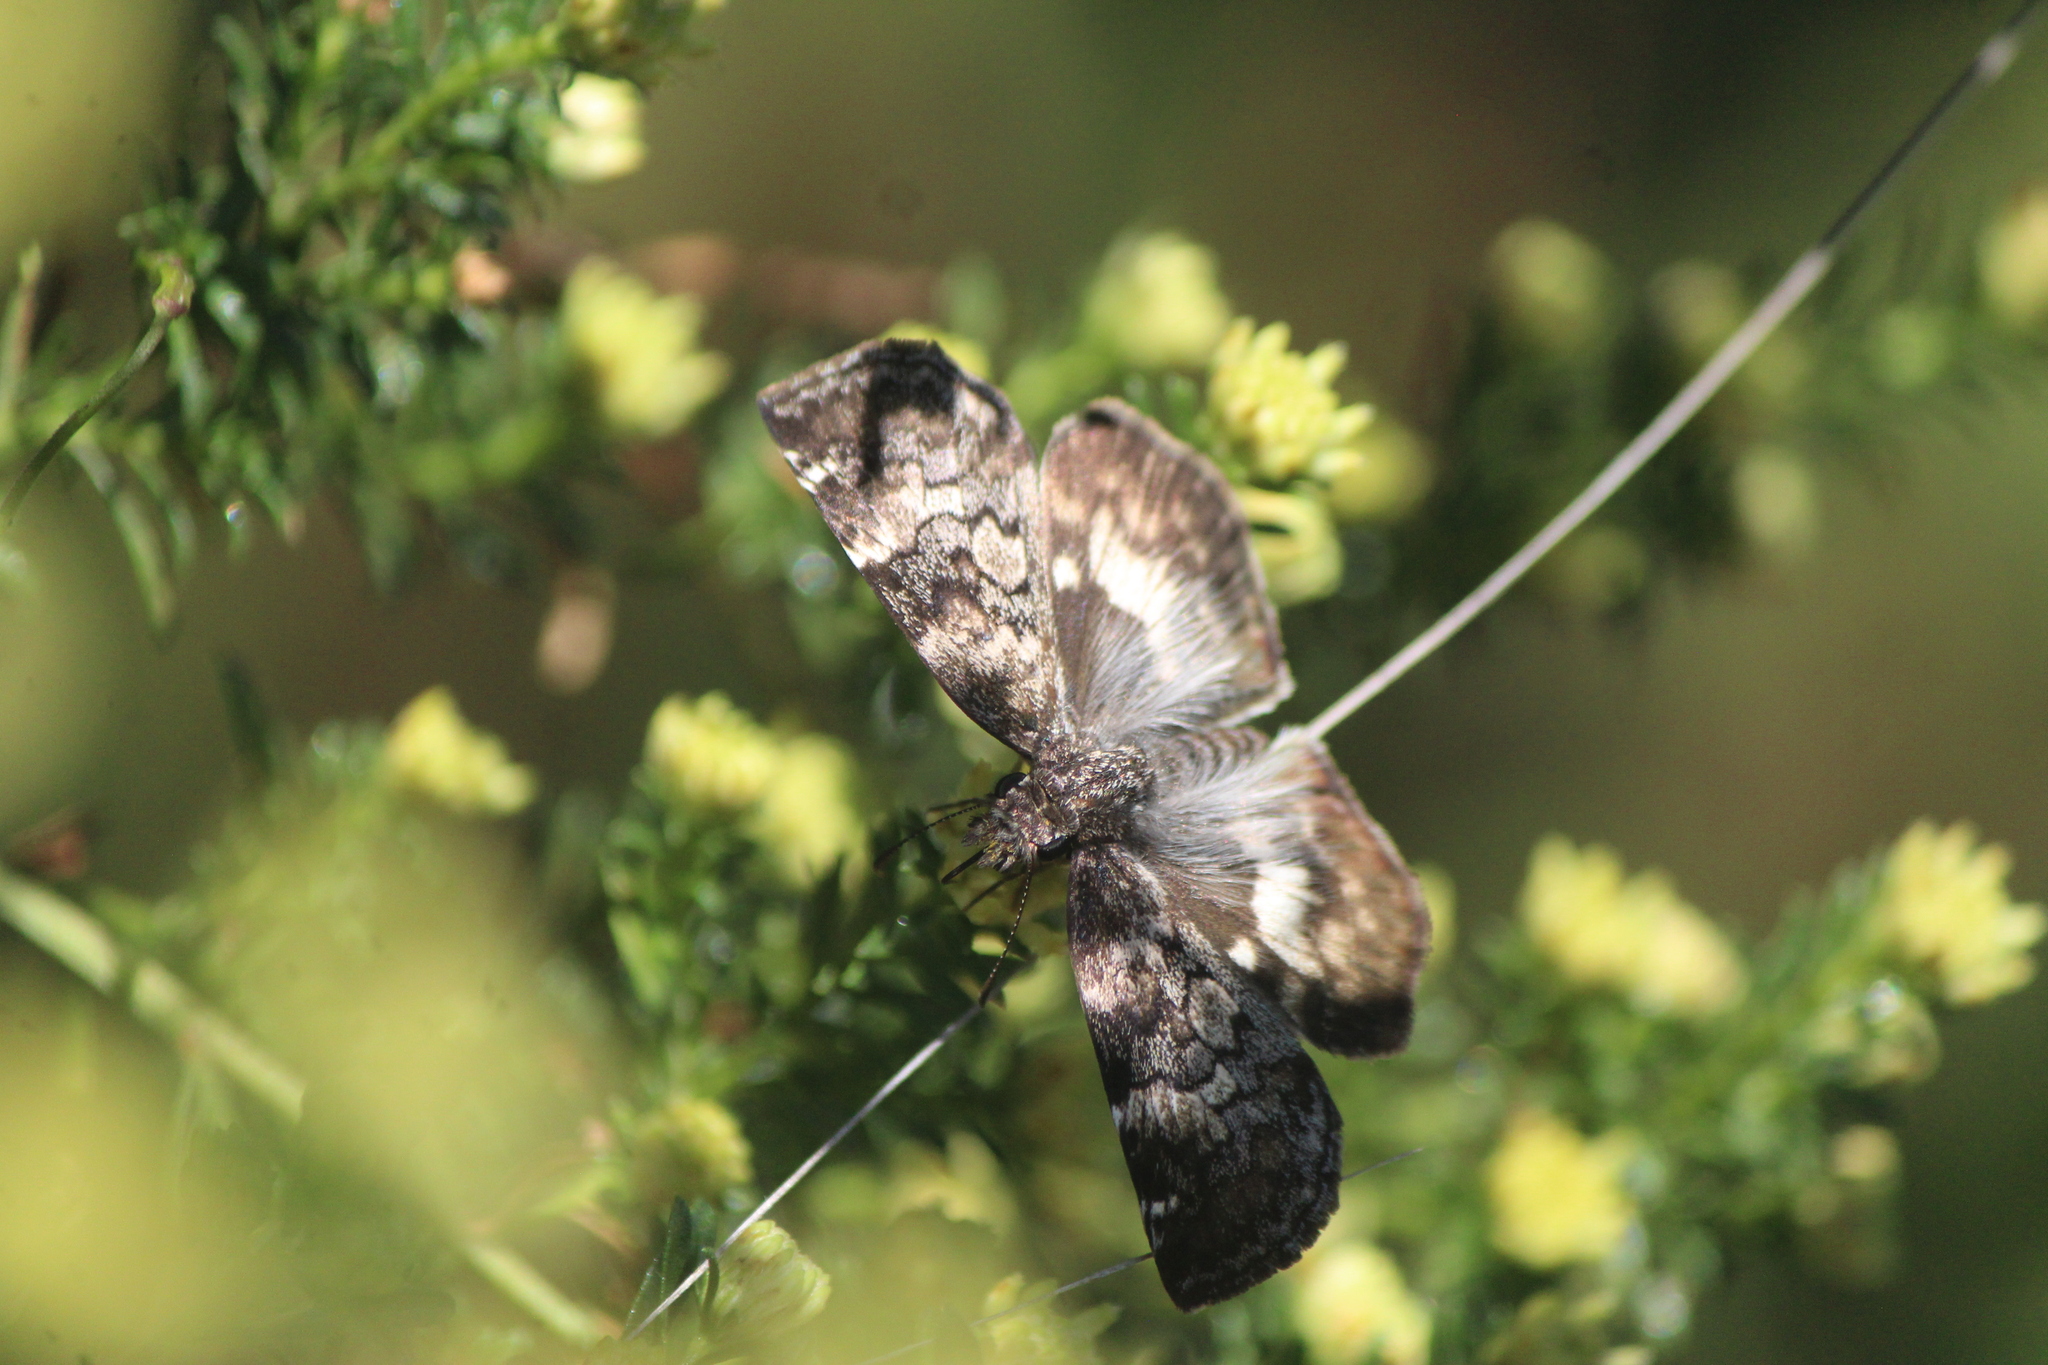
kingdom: Animalia
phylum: Arthropoda
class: Insecta
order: Lepidoptera
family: Hesperiidae
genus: Chiothion
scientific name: Chiothion georgina
